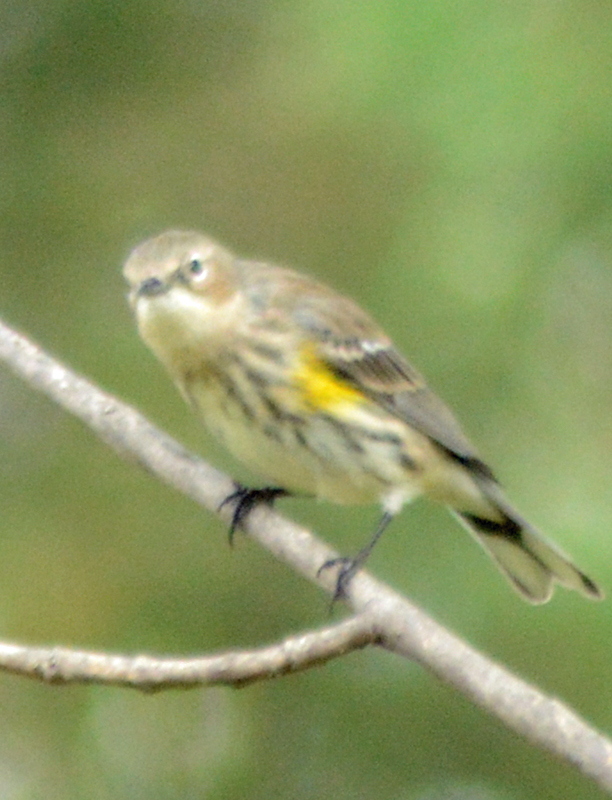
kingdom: Animalia
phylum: Chordata
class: Aves
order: Passeriformes
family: Parulidae
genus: Setophaga
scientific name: Setophaga coronata
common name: Myrtle warbler
